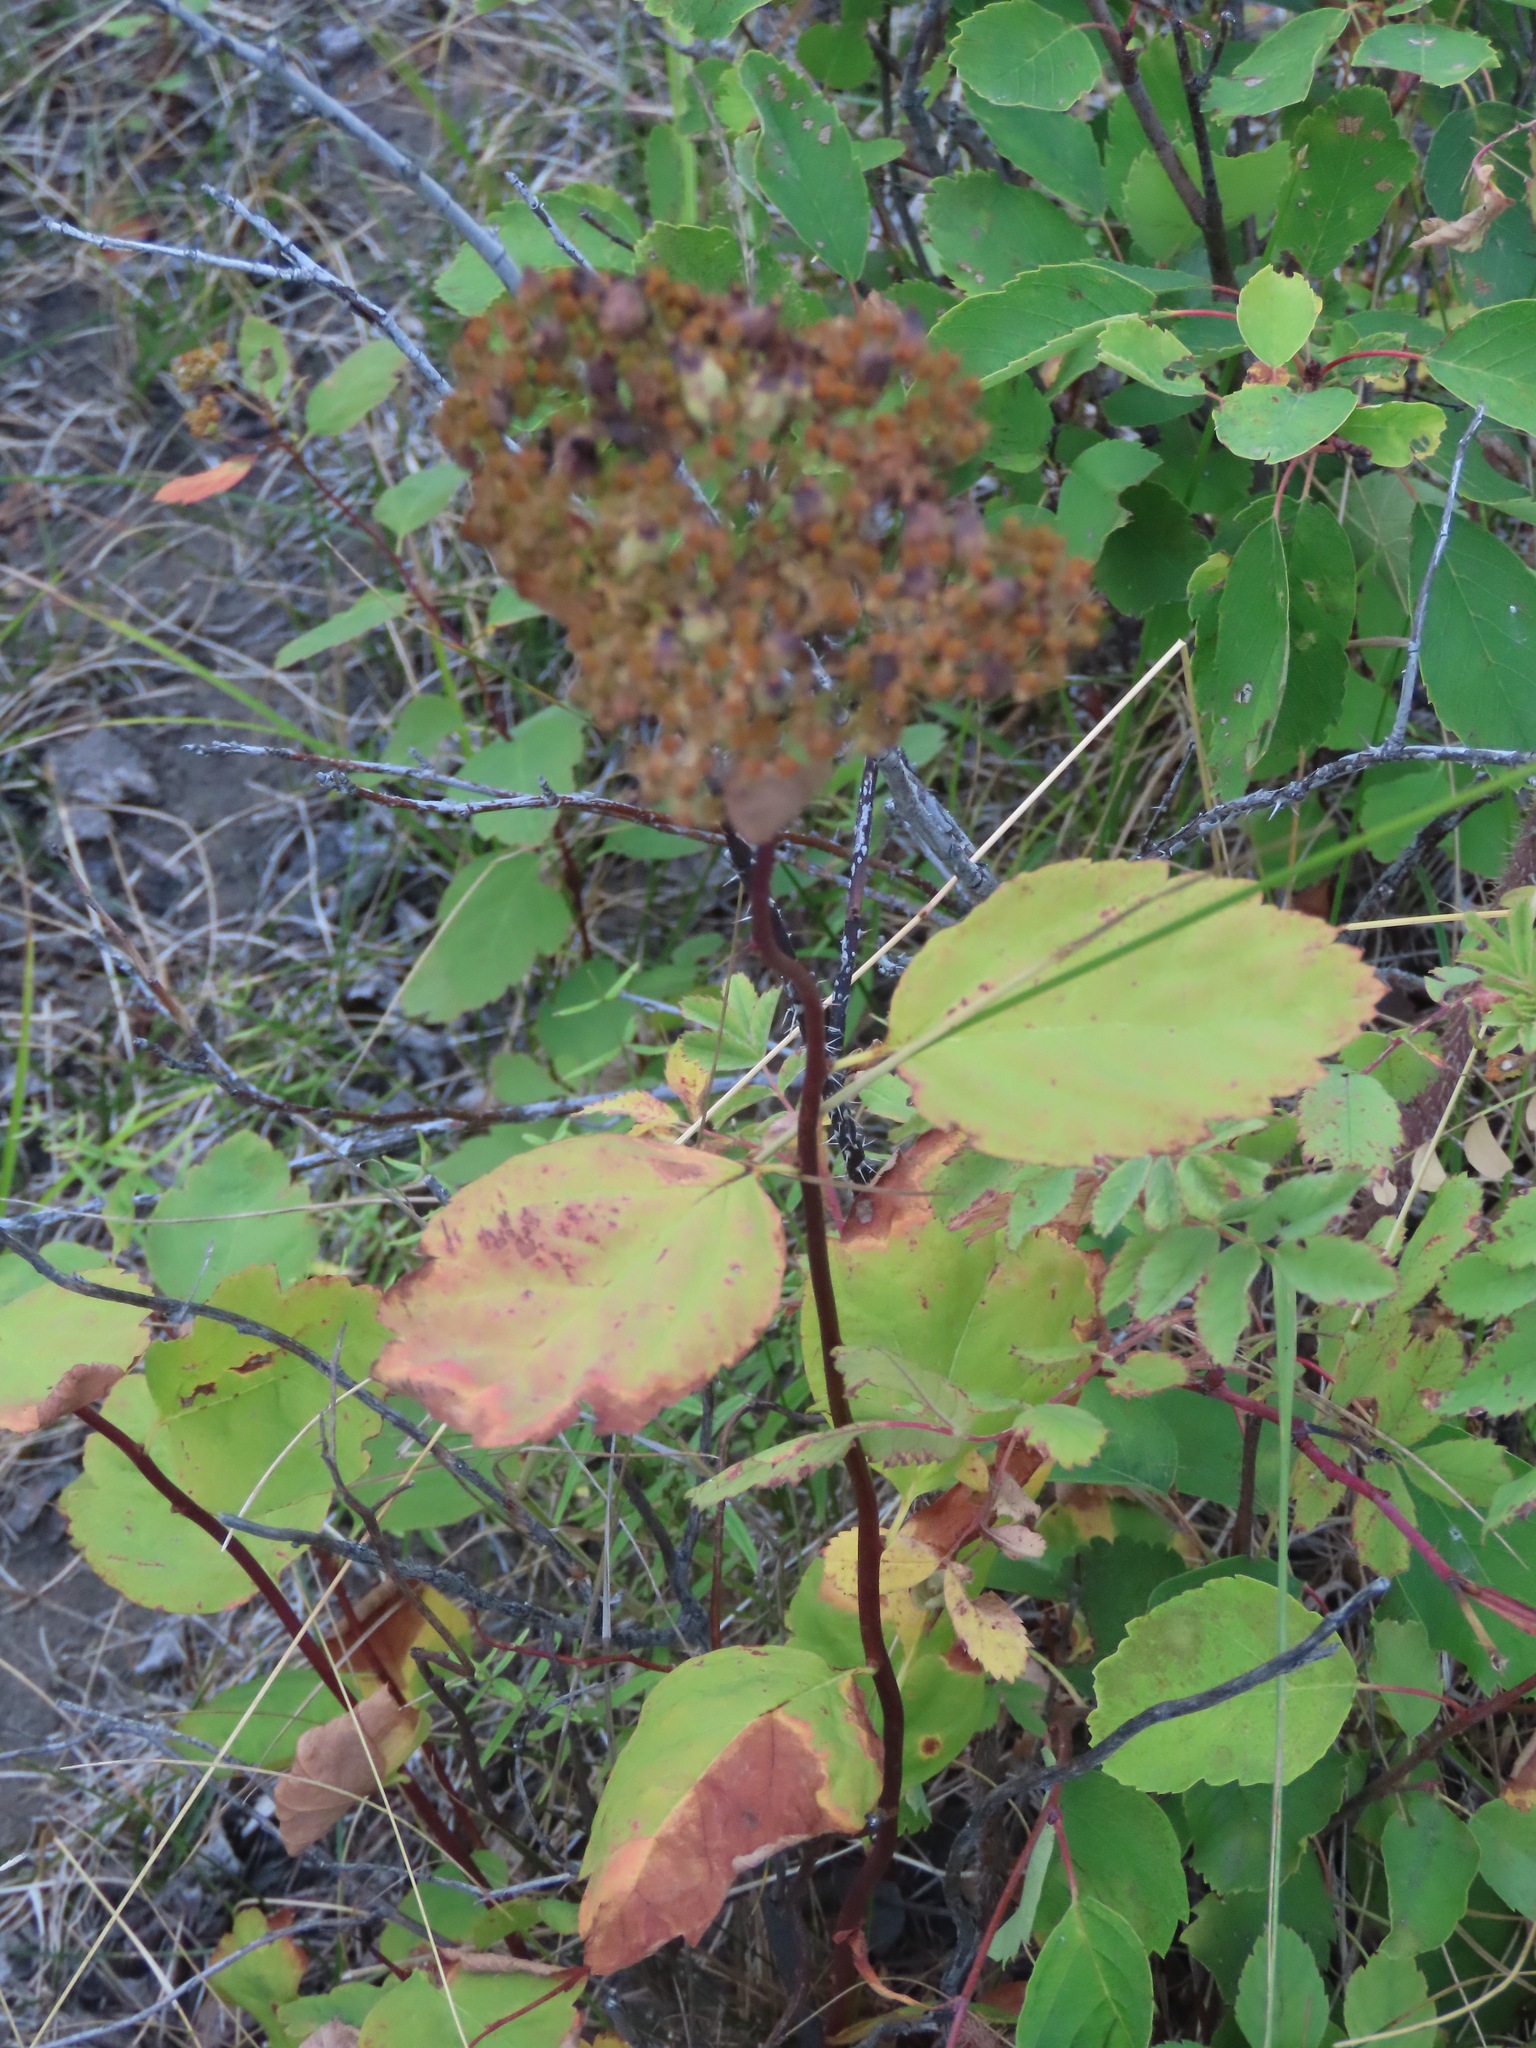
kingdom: Plantae
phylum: Tracheophyta
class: Magnoliopsida
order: Rosales
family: Rosaceae
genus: Spiraea
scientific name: Spiraea lucida
